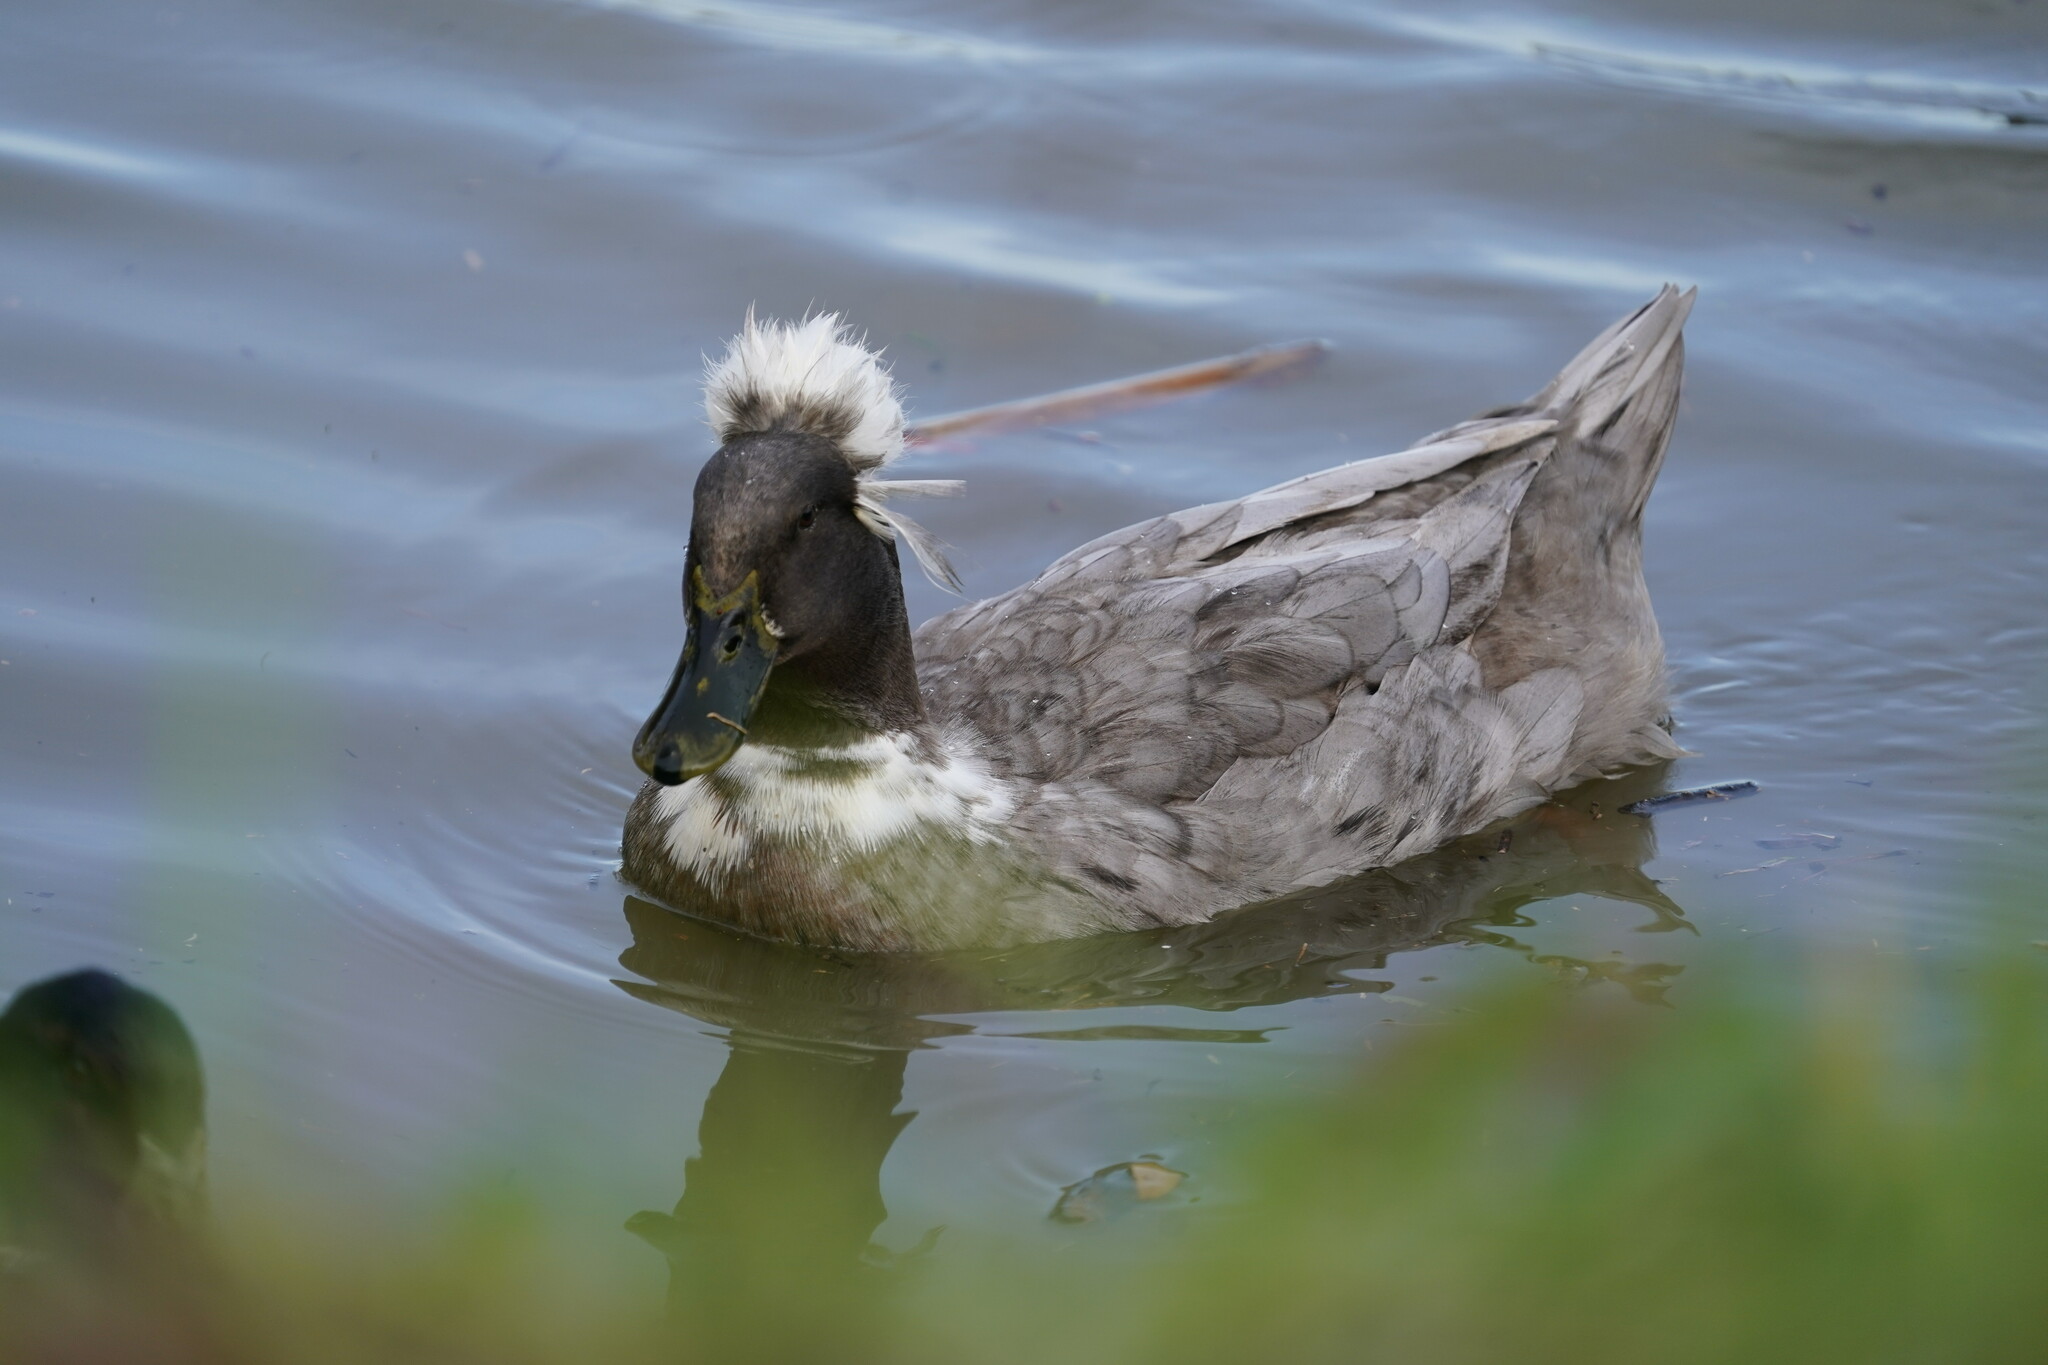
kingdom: Animalia
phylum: Chordata
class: Aves
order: Anseriformes
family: Anatidae
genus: Anas
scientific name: Anas platyrhynchos
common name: Mallard
